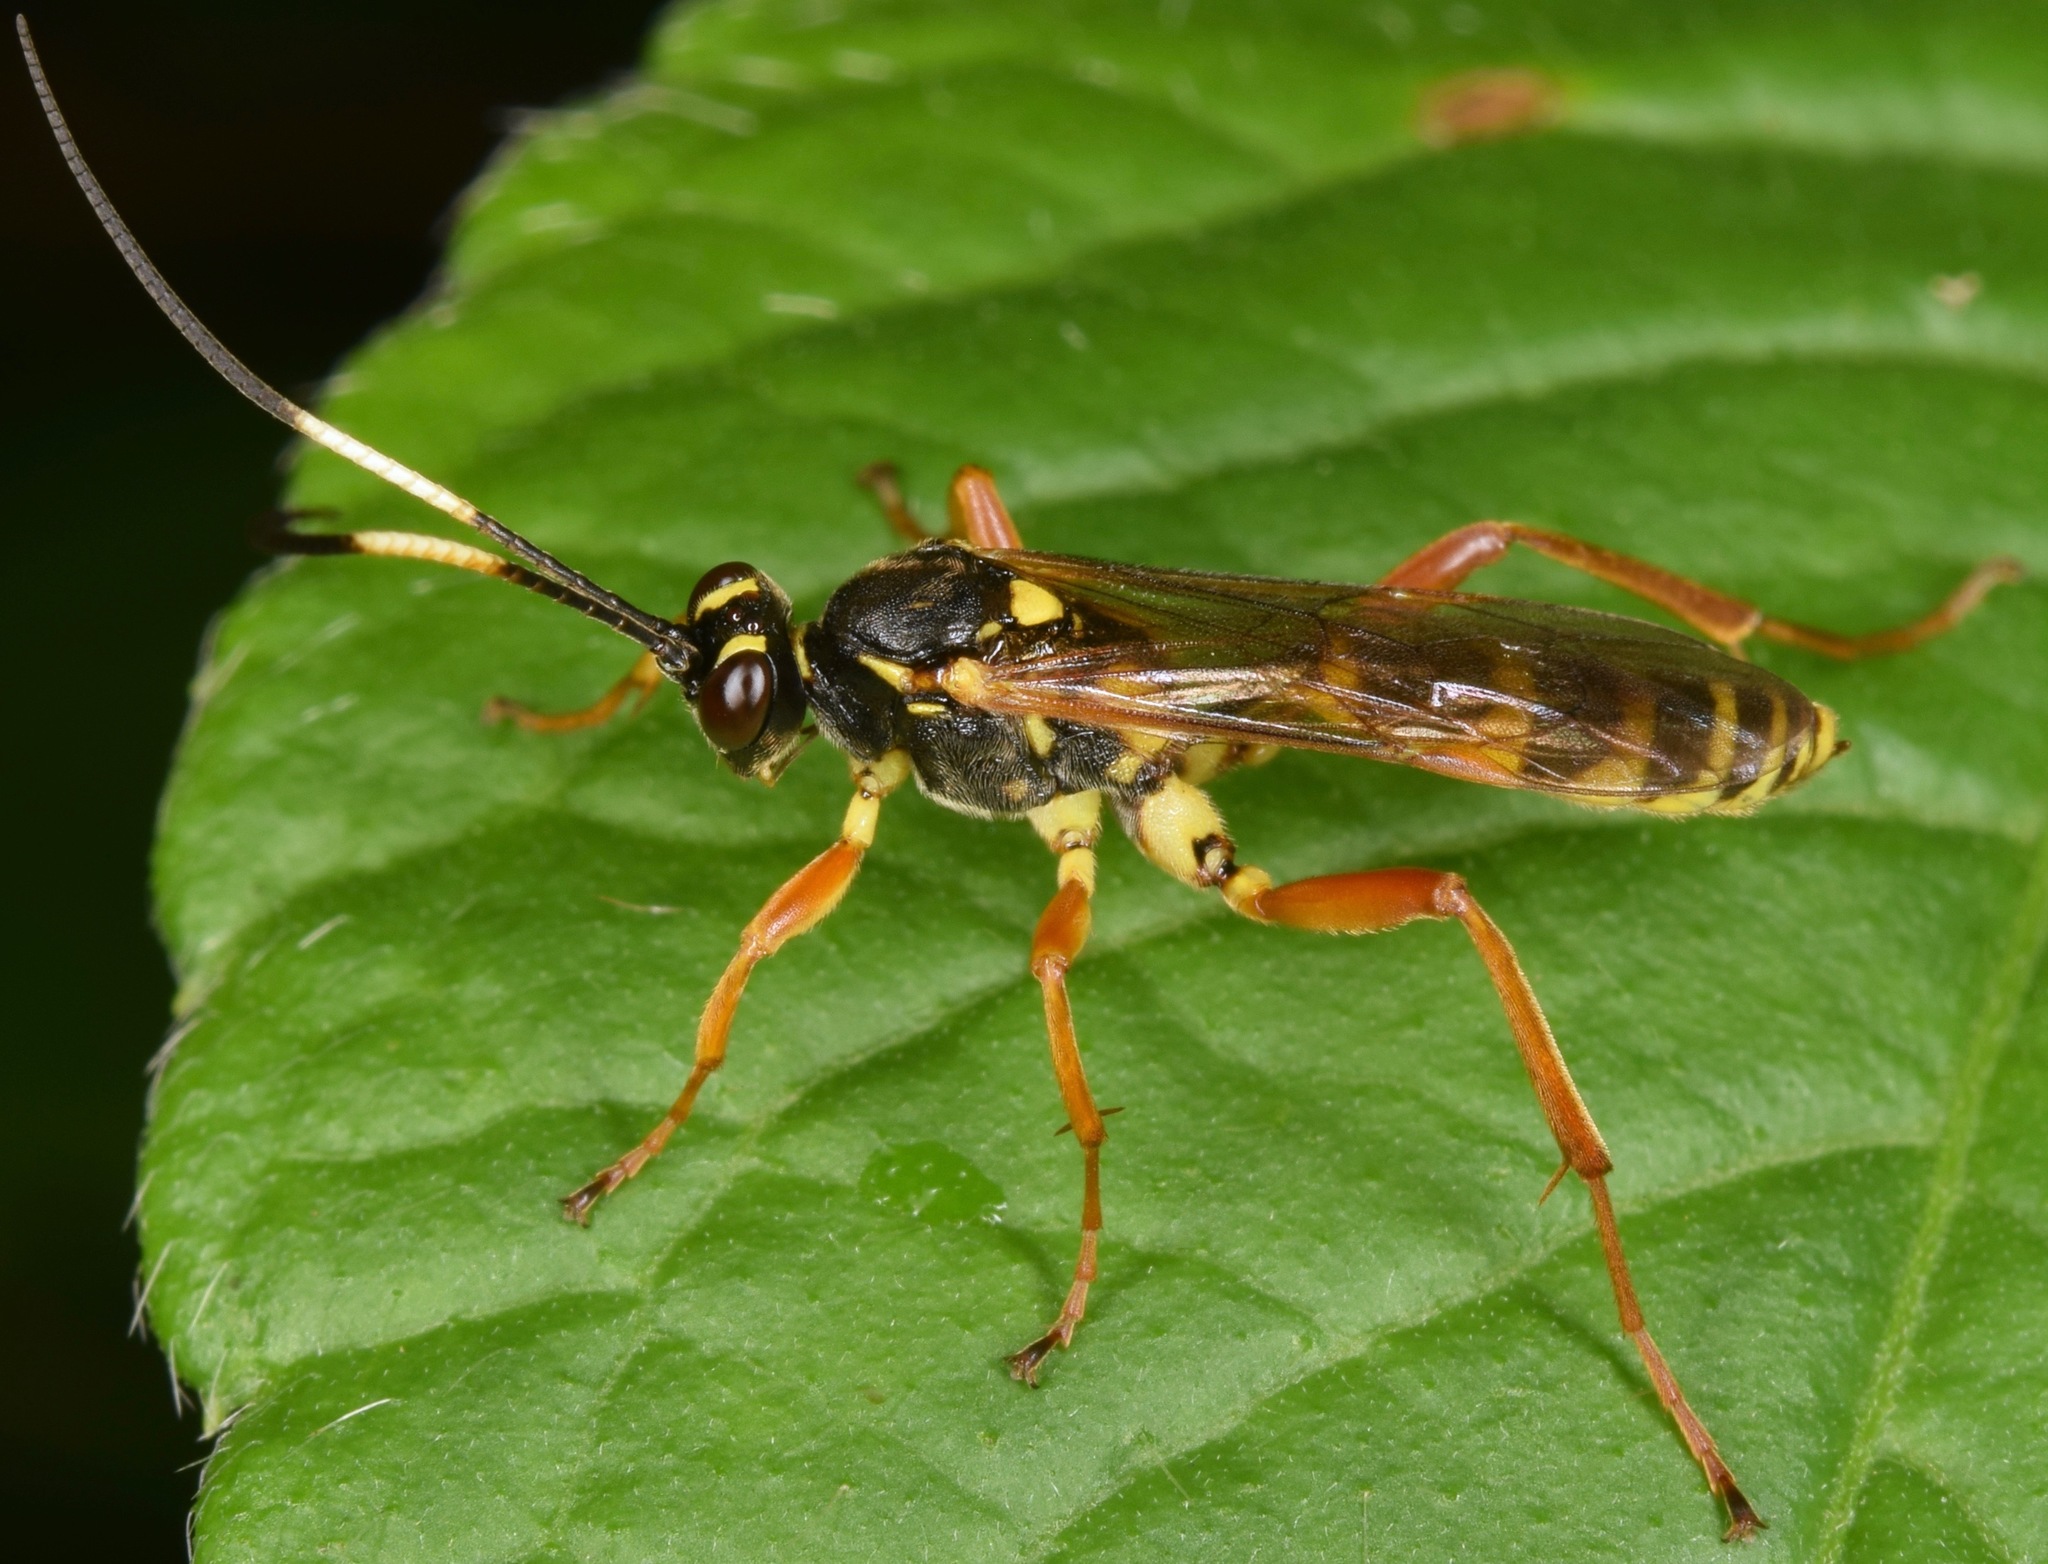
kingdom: Animalia
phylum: Arthropoda
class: Insecta
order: Hymenoptera
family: Ichneumonidae
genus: Setanta
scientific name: Setanta compta
